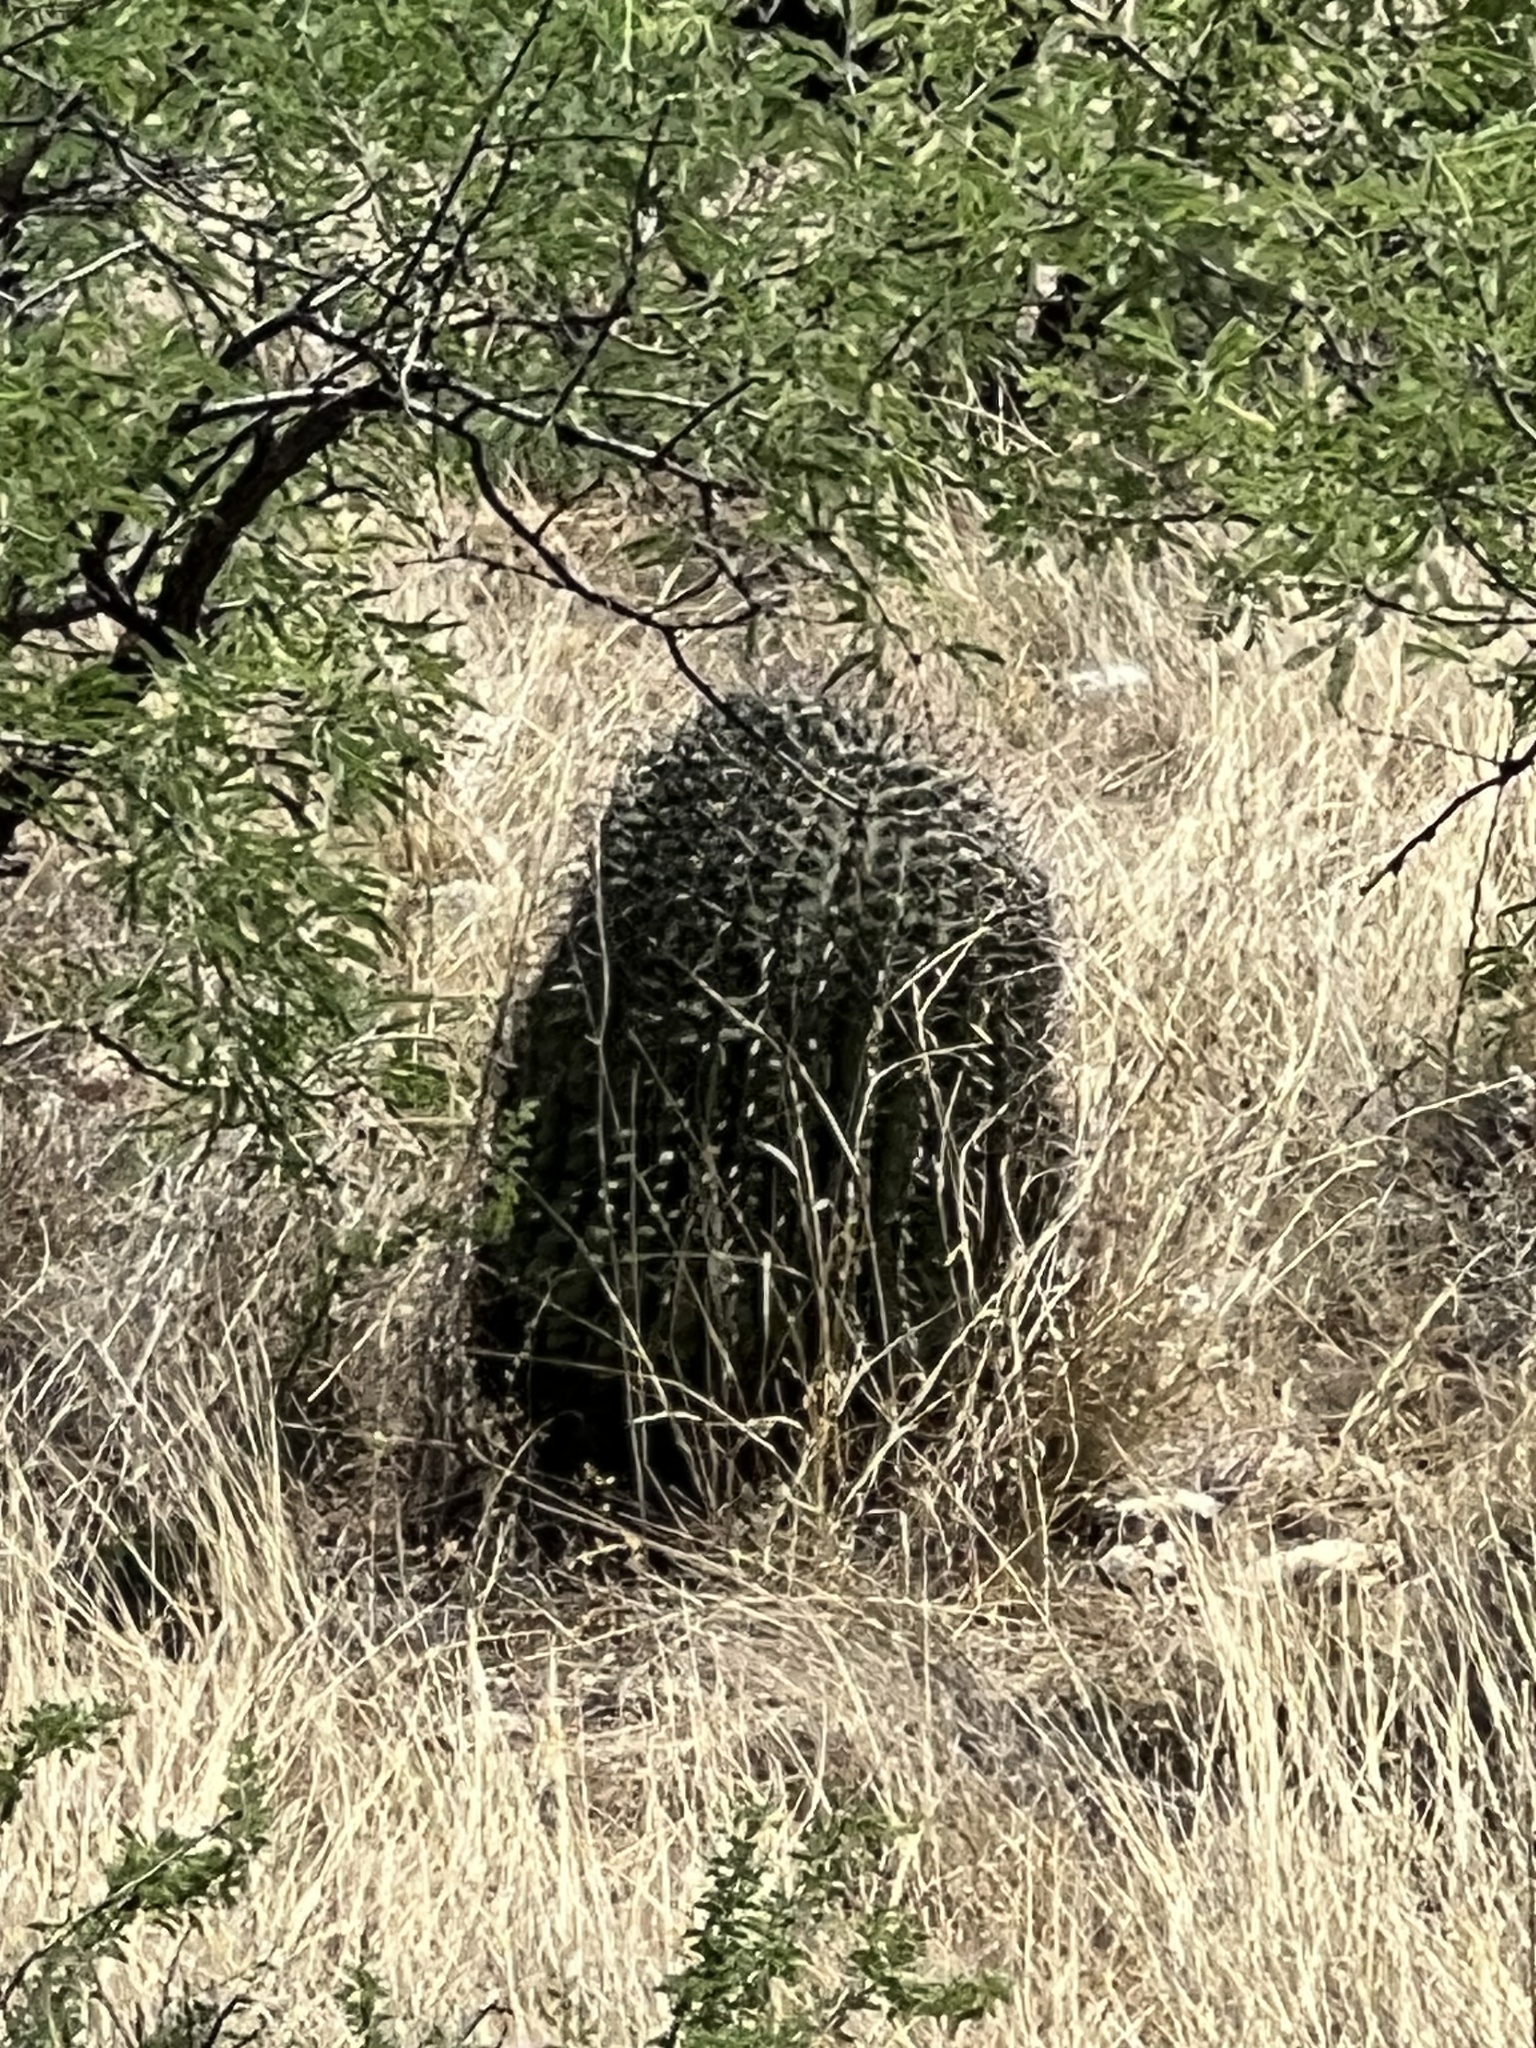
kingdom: Plantae
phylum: Tracheophyta
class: Magnoliopsida
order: Caryophyllales
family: Cactaceae
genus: Ferocactus
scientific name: Ferocactus wislizeni
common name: Candy barrel cactus
